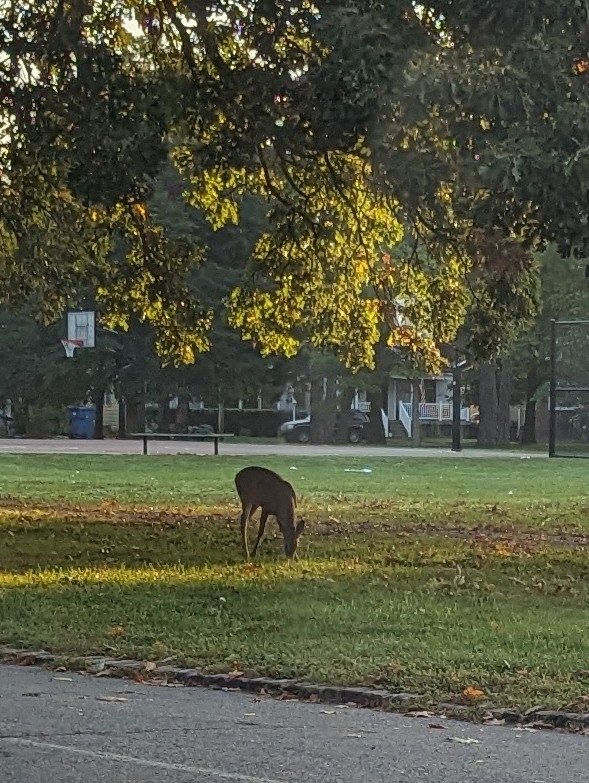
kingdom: Animalia
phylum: Chordata
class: Mammalia
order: Artiodactyla
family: Cervidae
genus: Odocoileus
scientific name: Odocoileus virginianus
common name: White-tailed deer
